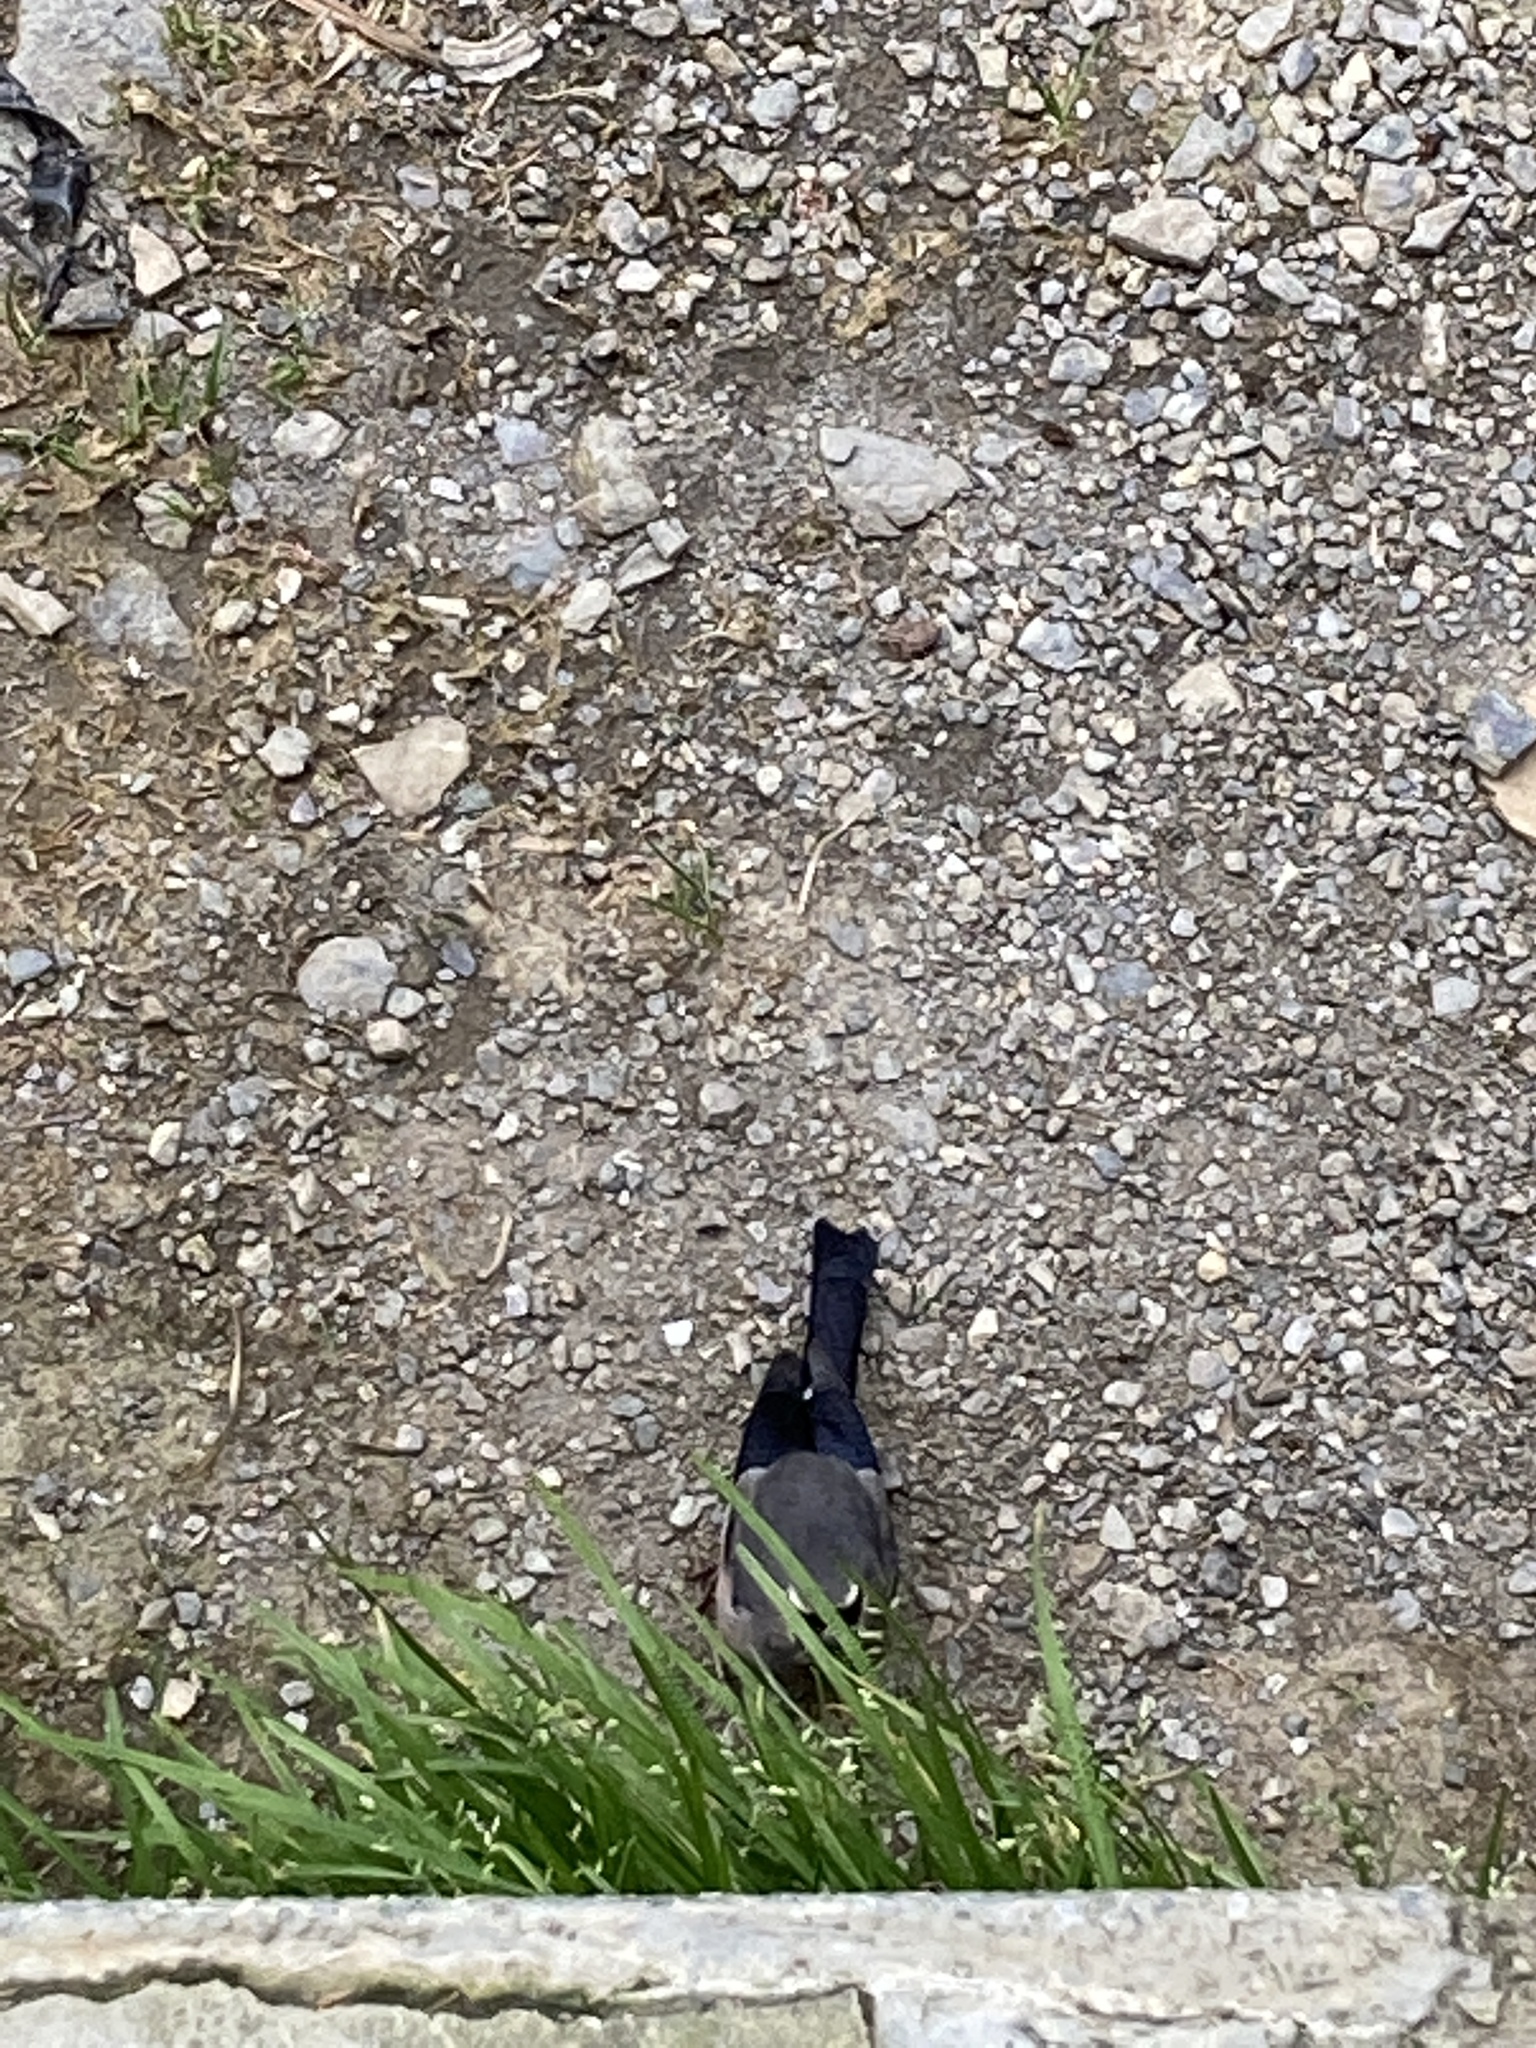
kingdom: Animalia
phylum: Chordata
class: Aves
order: Passeriformes
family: Fringillidae
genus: Pyrrhula
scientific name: Pyrrhula owstoni
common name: Taiwan bullfinch
